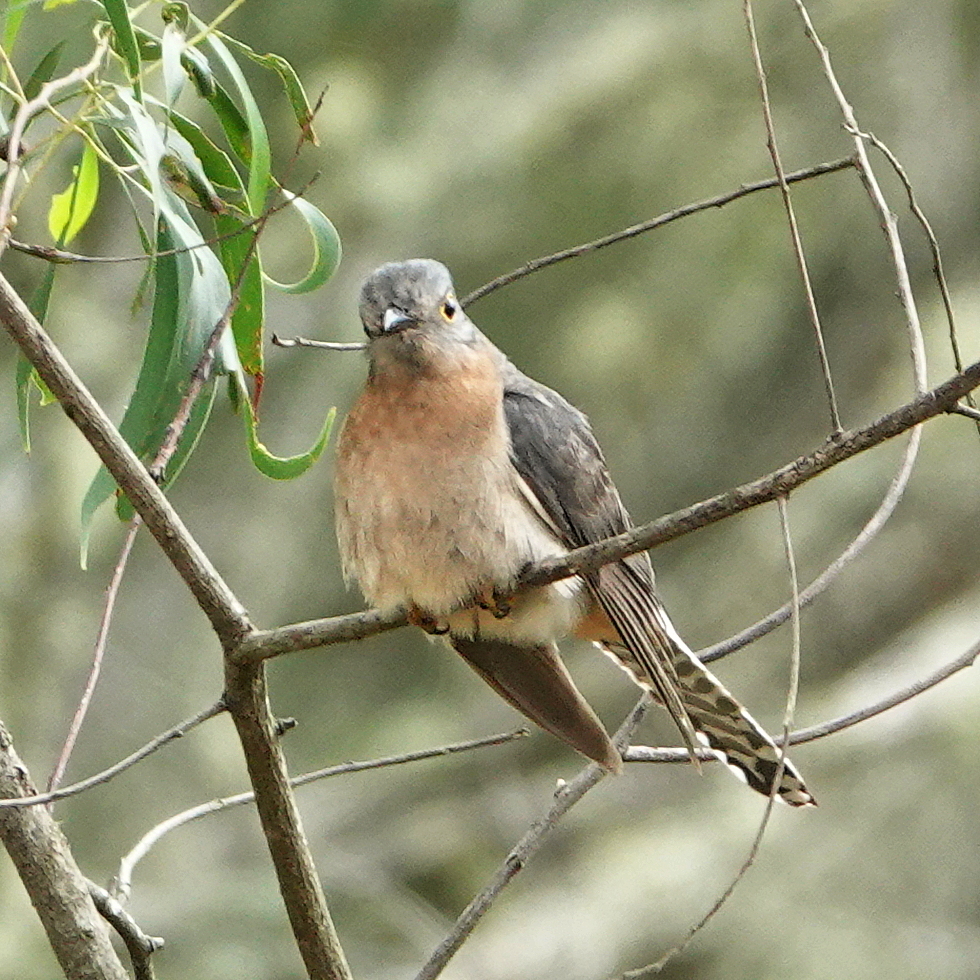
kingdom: Animalia
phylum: Chordata
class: Aves
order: Cuculiformes
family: Cuculidae
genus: Cacomantis
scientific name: Cacomantis flabelliformis
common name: Fan-tailed cuckoo
